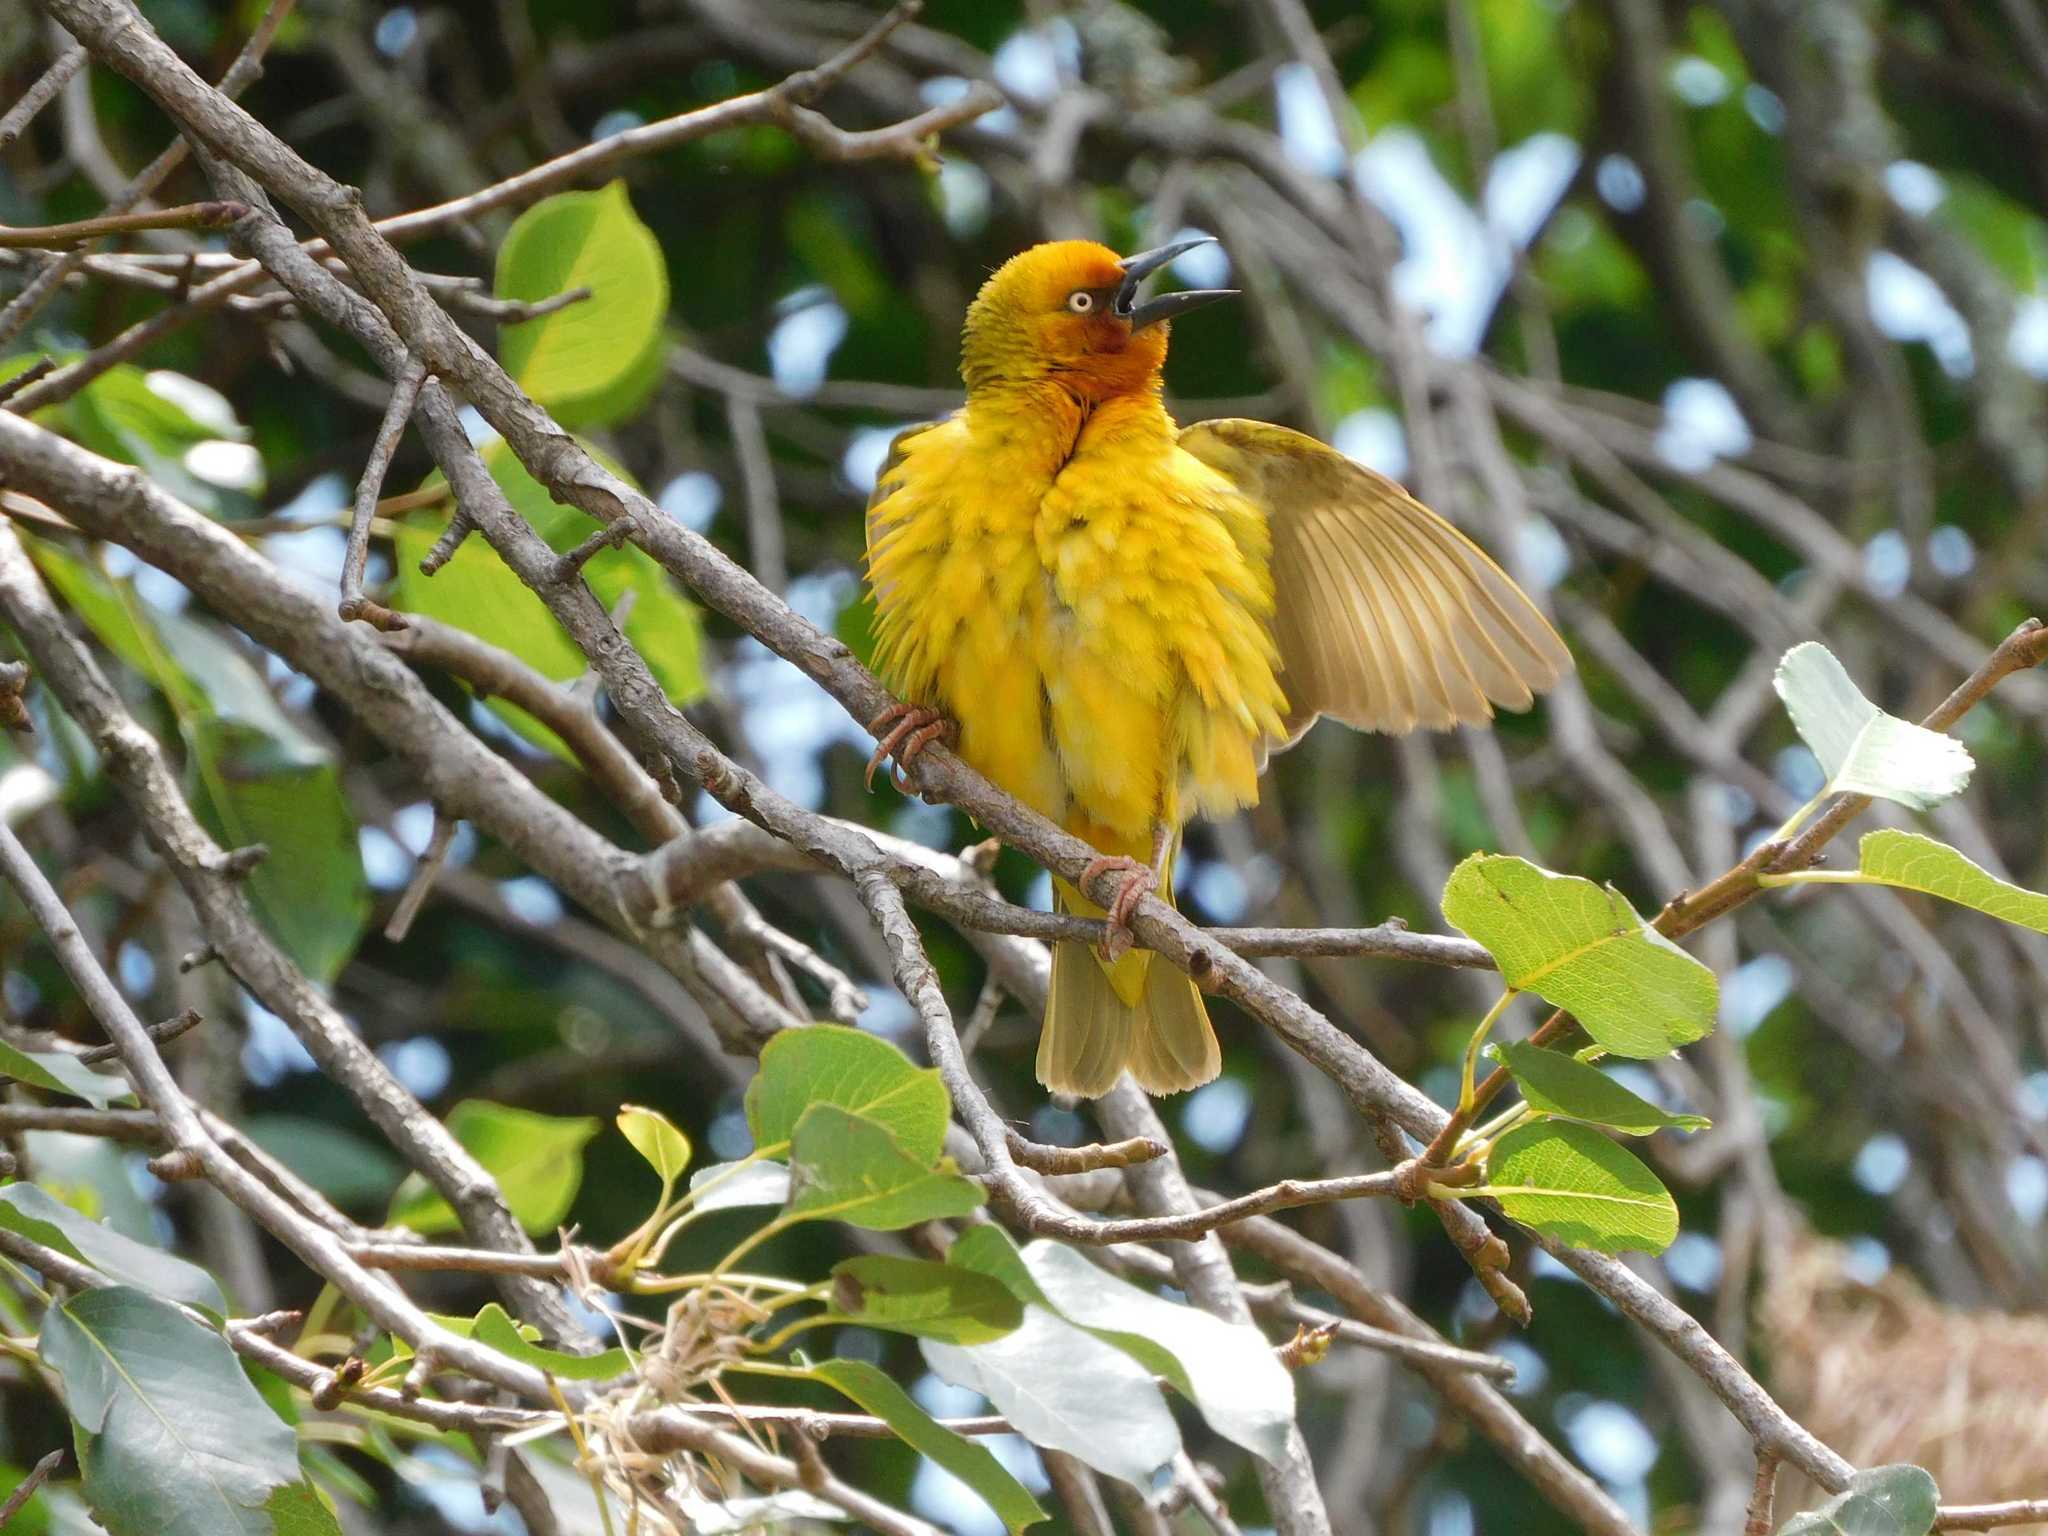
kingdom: Animalia
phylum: Chordata
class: Aves
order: Passeriformes
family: Ploceidae
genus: Ploceus
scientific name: Ploceus capensis
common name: Cape weaver
